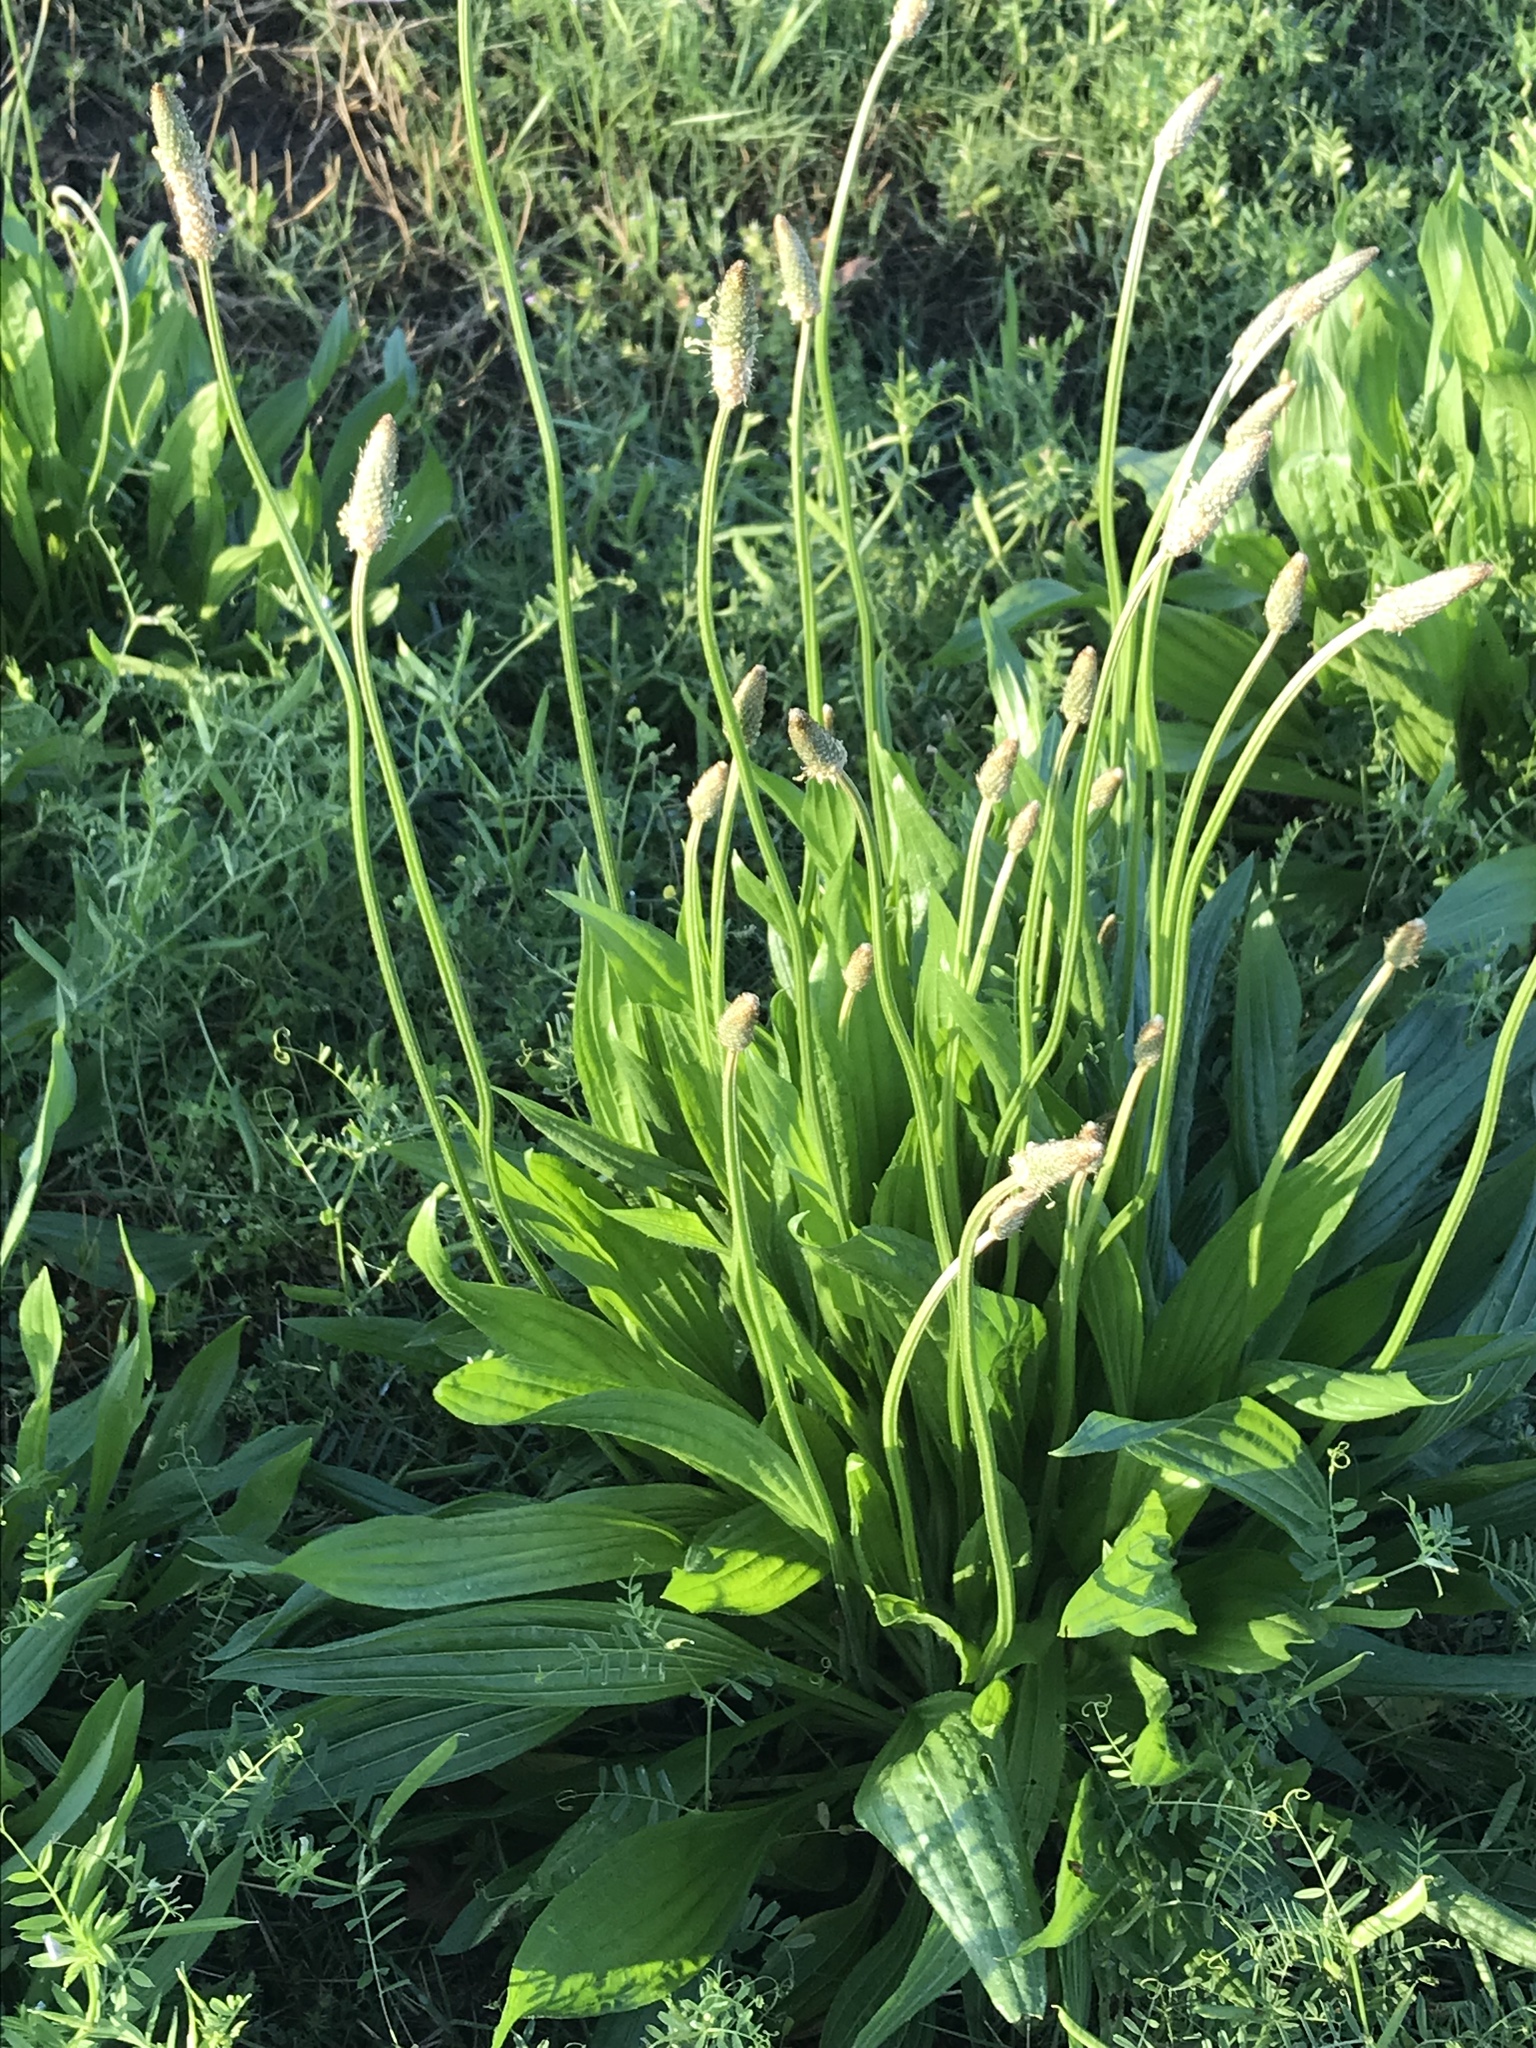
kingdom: Plantae
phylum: Tracheophyta
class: Magnoliopsida
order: Lamiales
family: Plantaginaceae
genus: Plantago
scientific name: Plantago lanceolata
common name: Ribwort plantain
